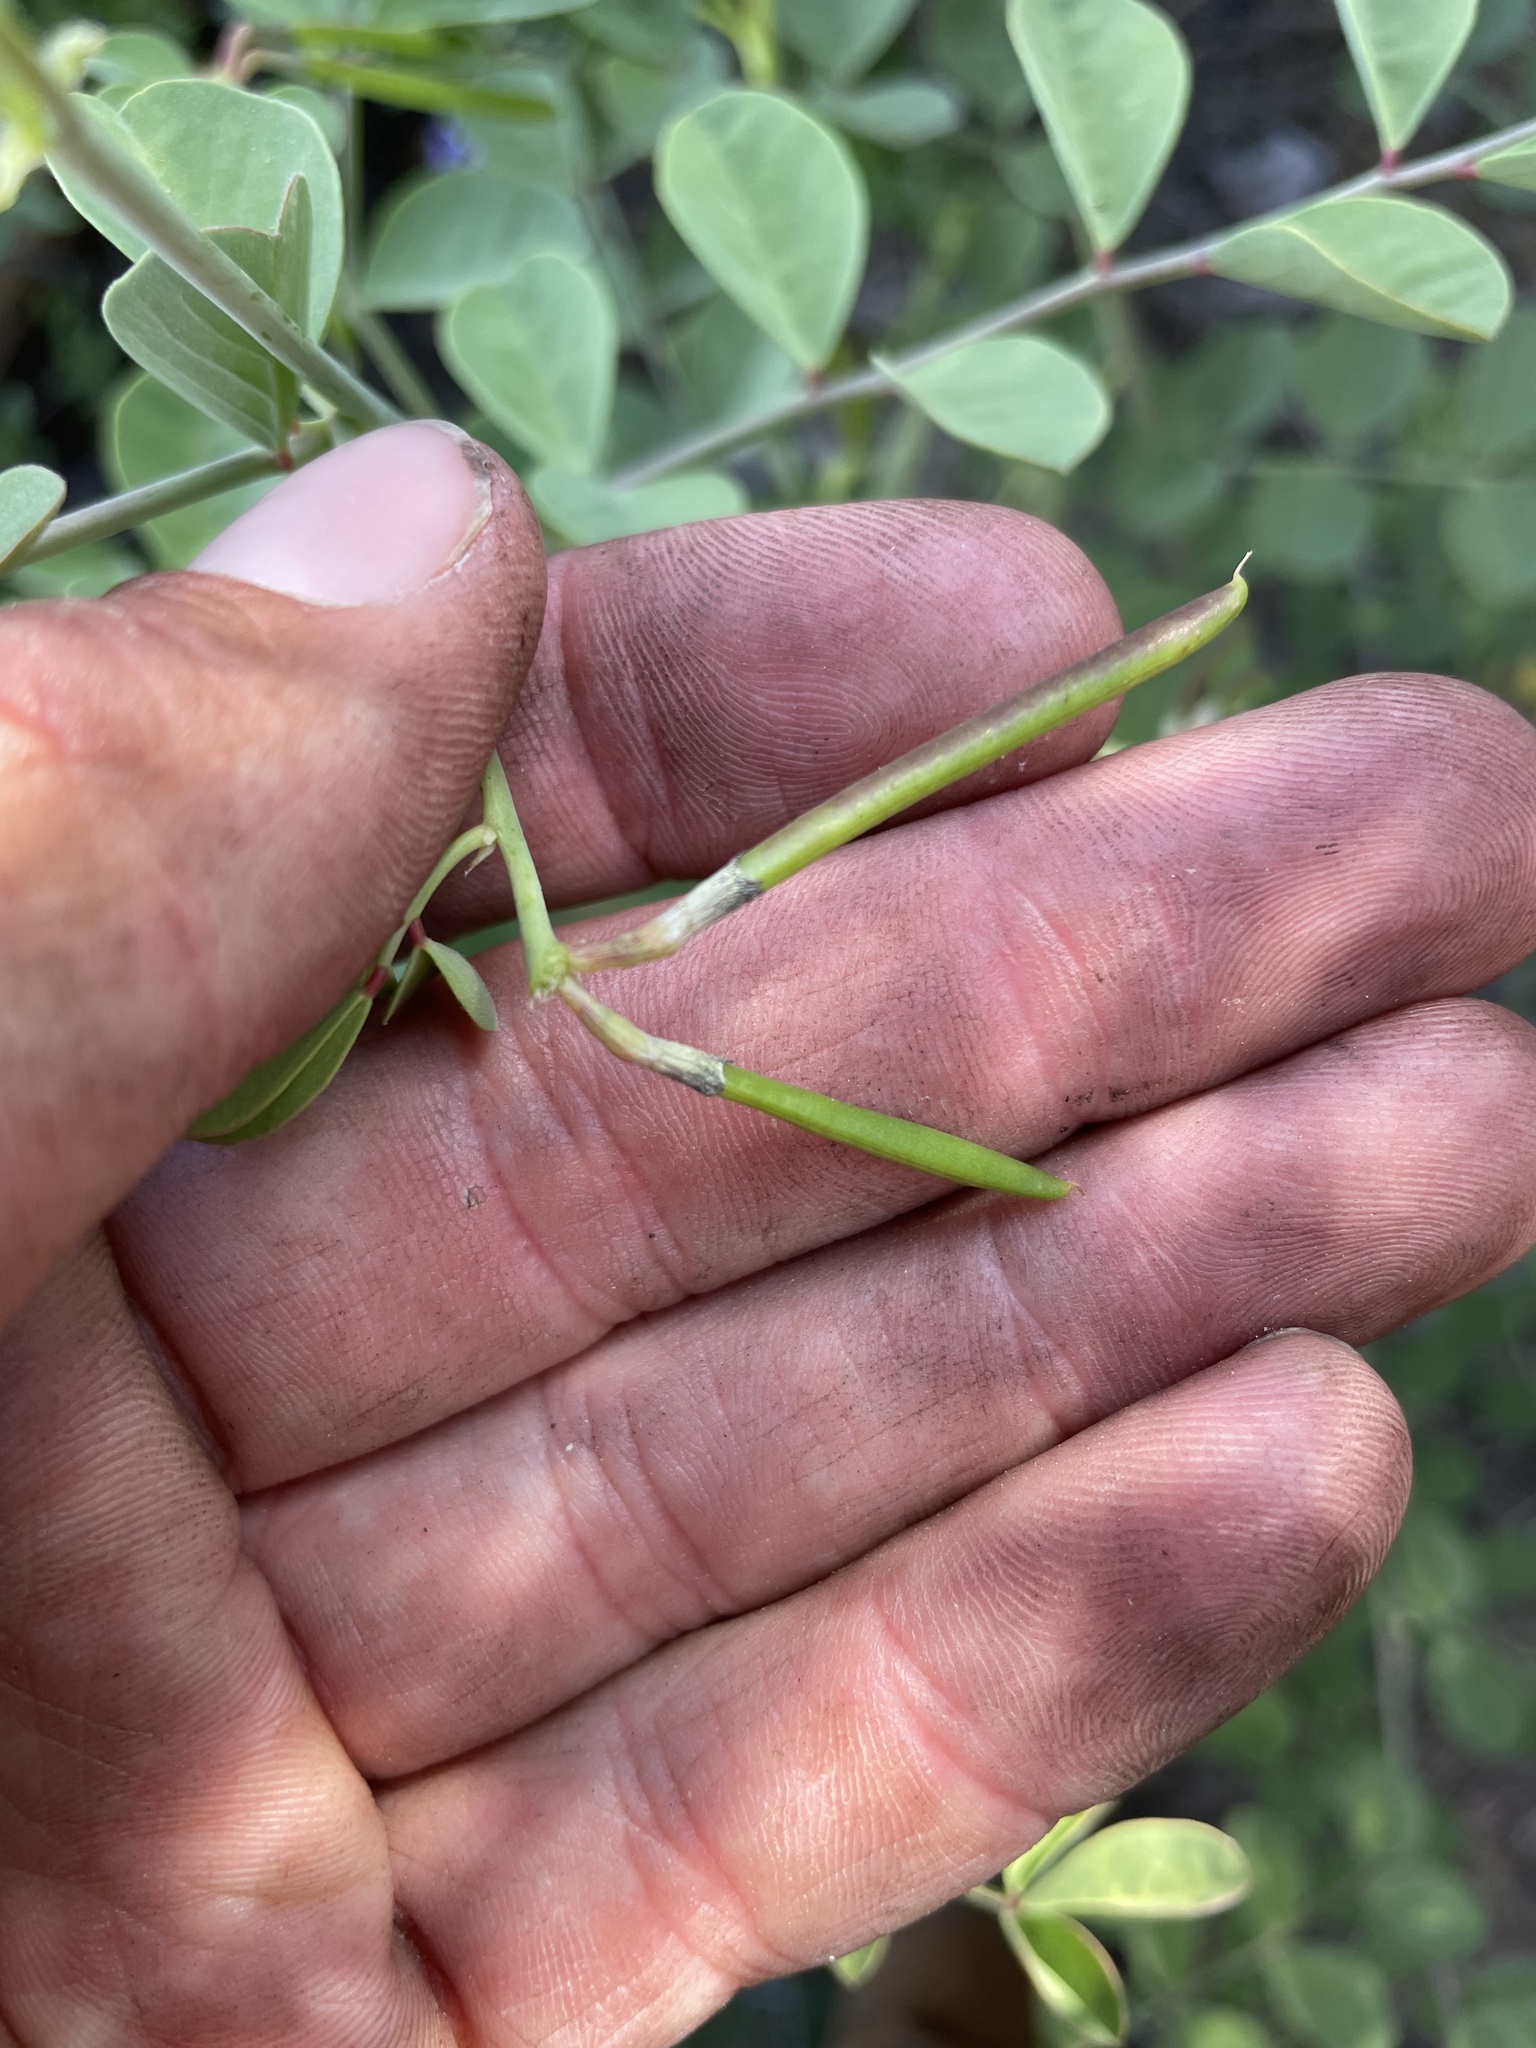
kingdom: Plantae
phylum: Tracheophyta
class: Magnoliopsida
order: Fabales
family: Fabaceae
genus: Hosackia
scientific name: Hosackia crassifolia
